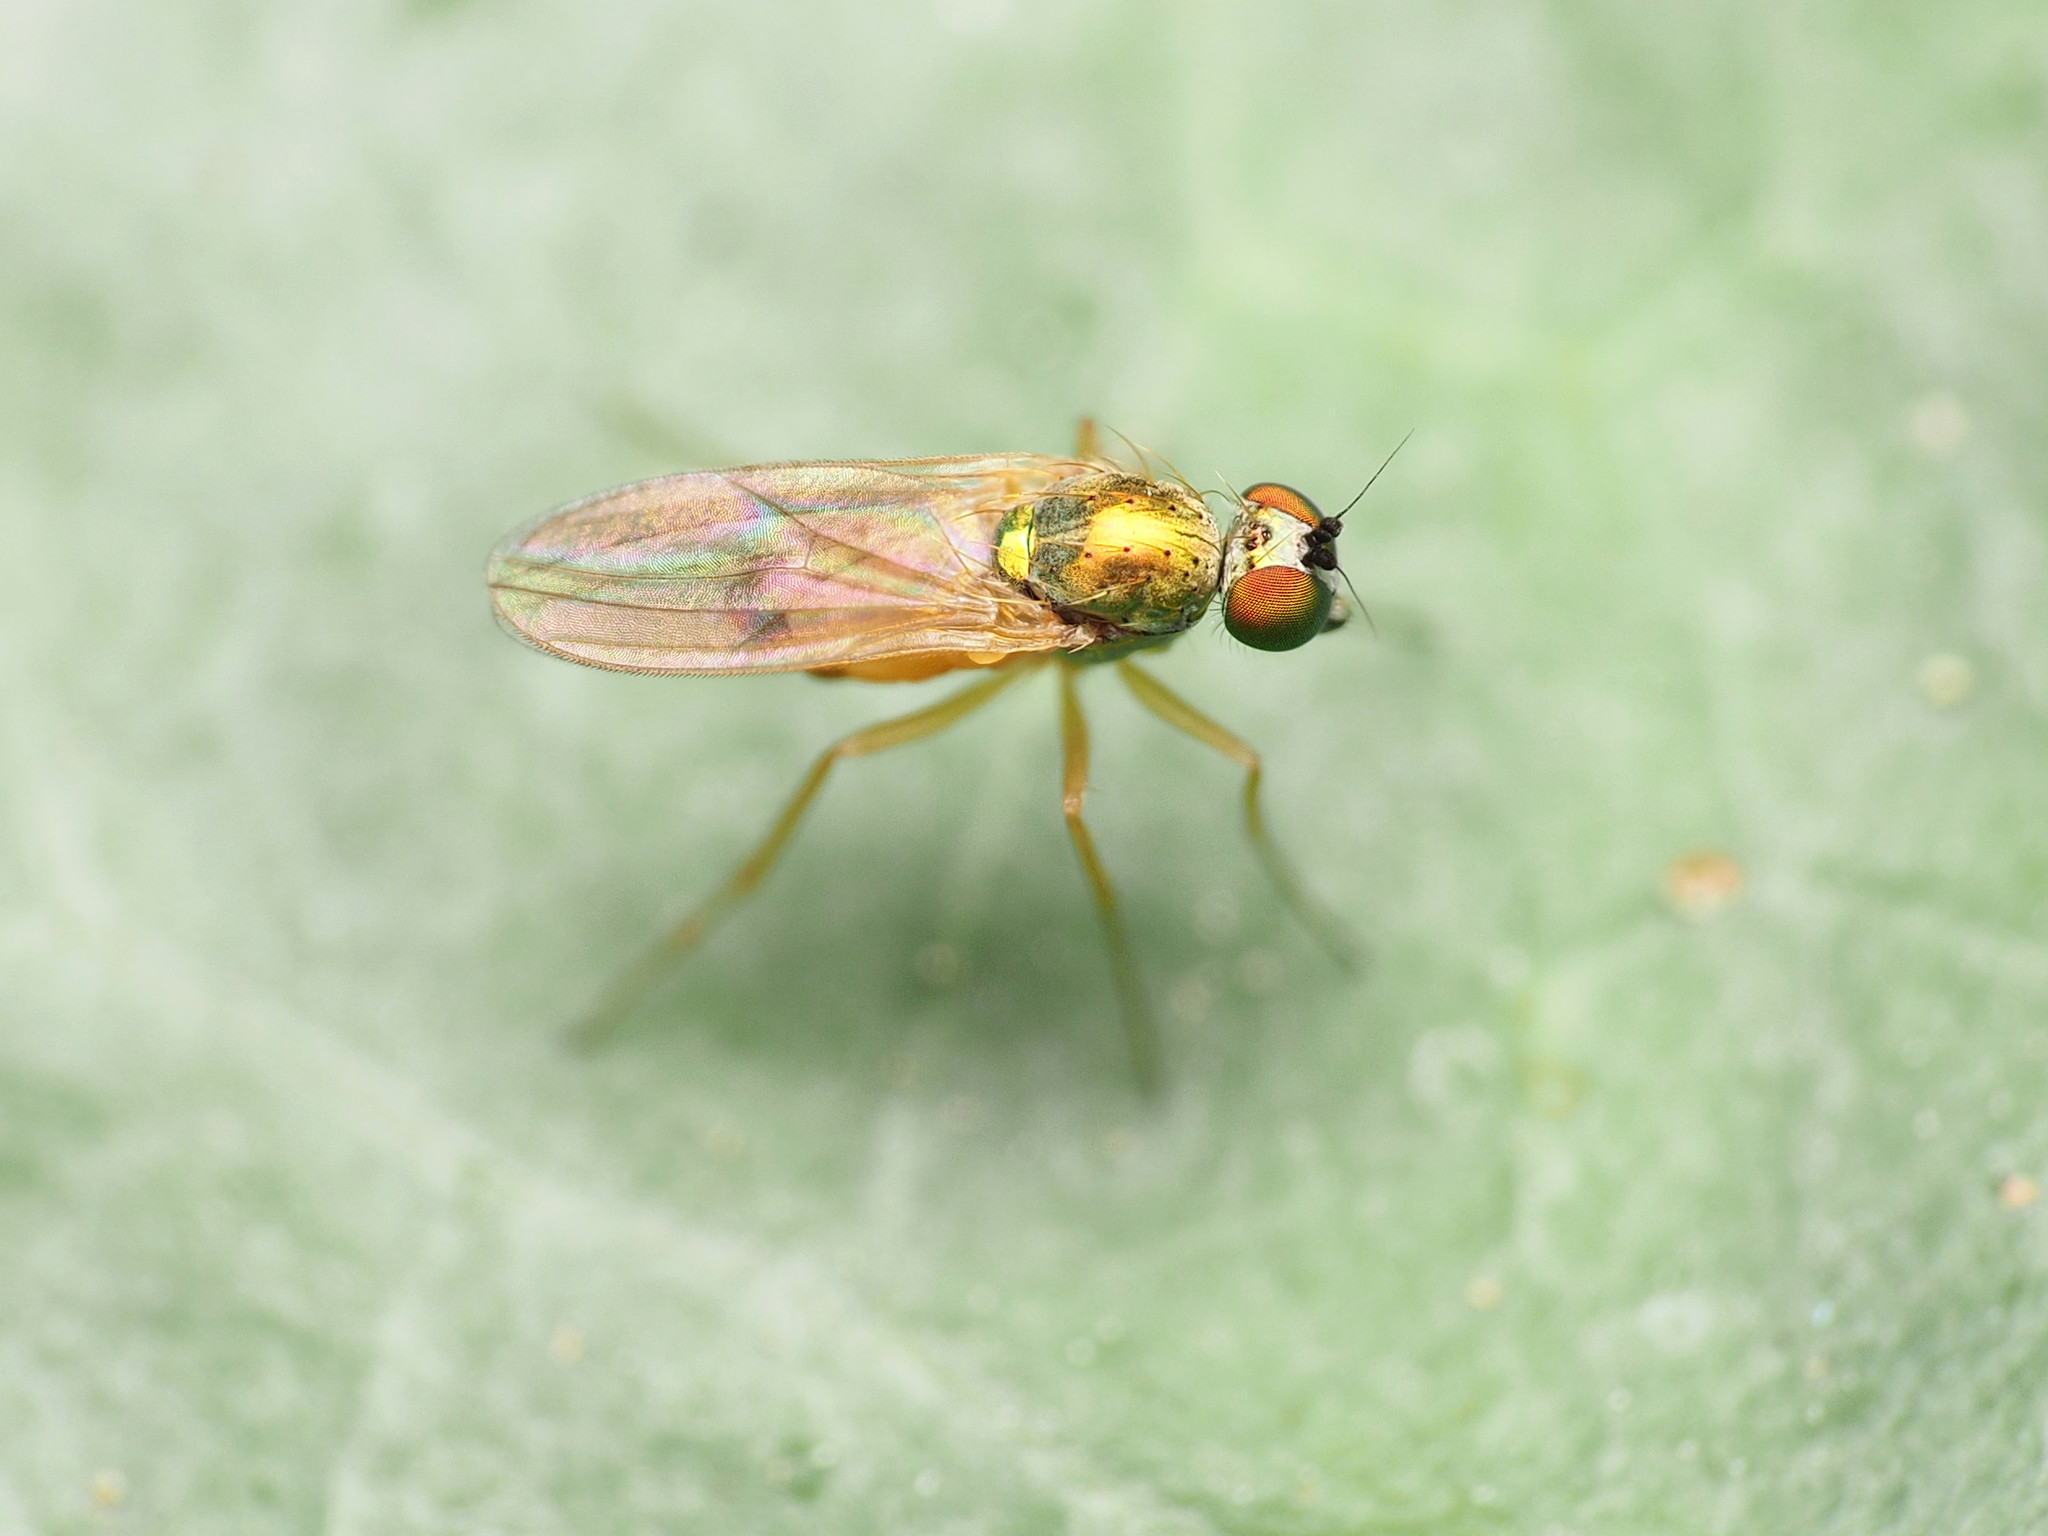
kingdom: Animalia
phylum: Arthropoda
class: Insecta
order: Diptera
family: Dolichopodidae
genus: Chrysotimus
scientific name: Chrysotimus molliculus
